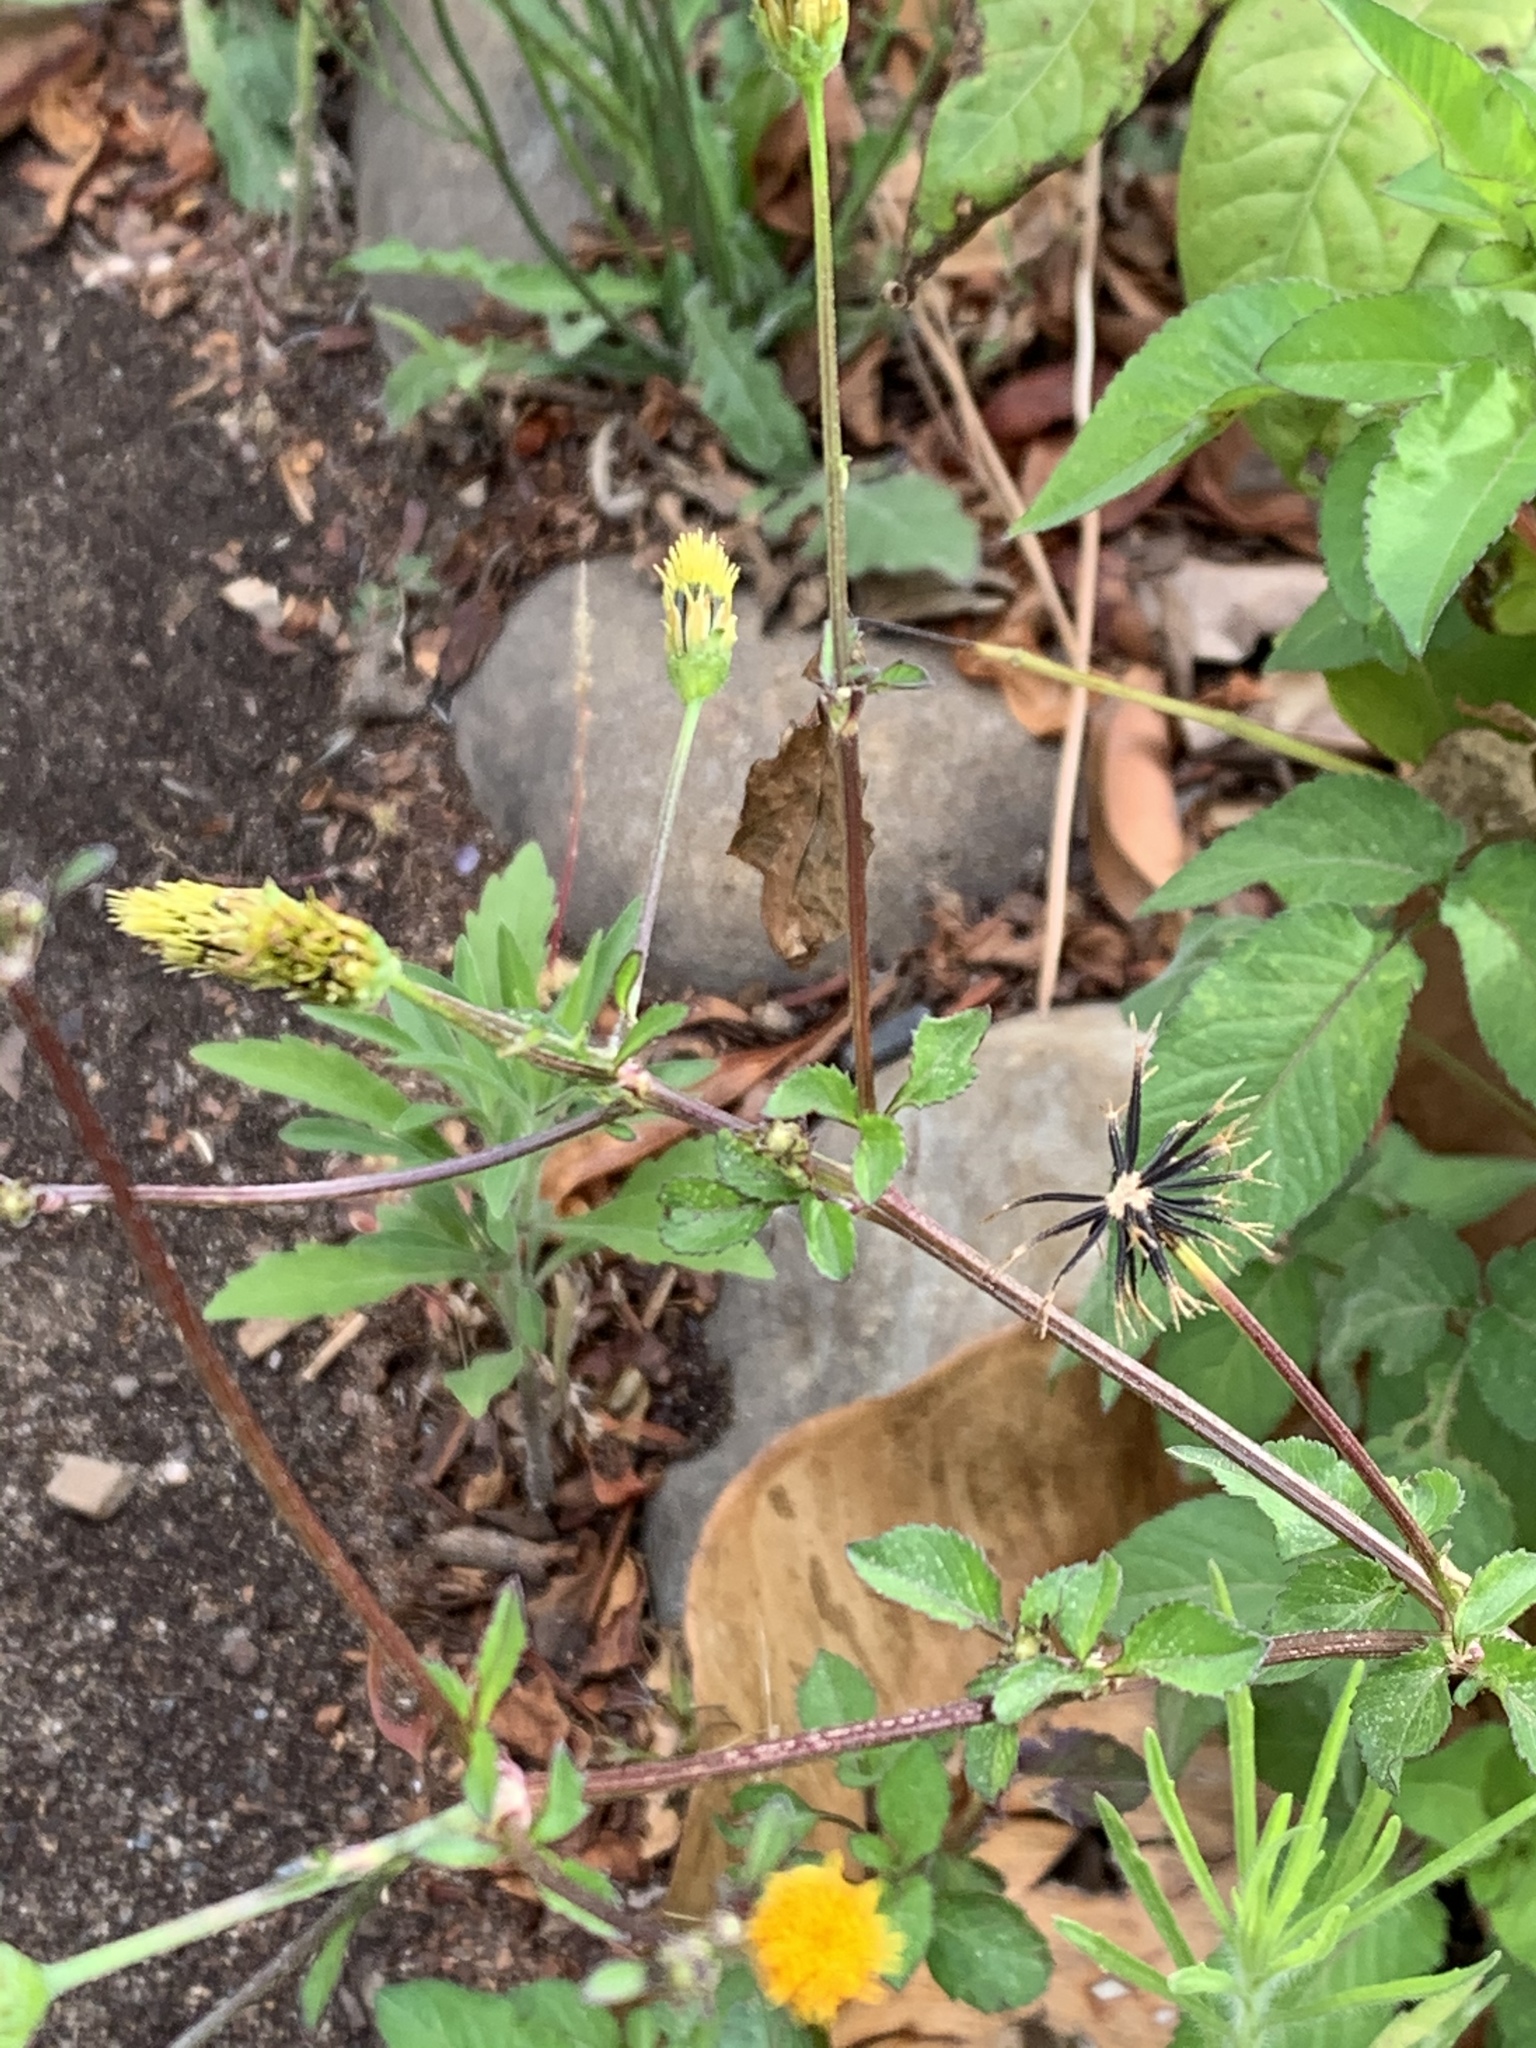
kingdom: Plantae
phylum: Tracheophyta
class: Magnoliopsida
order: Asterales
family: Asteraceae
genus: Bidens
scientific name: Bidens pilosa
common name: Black-jack
